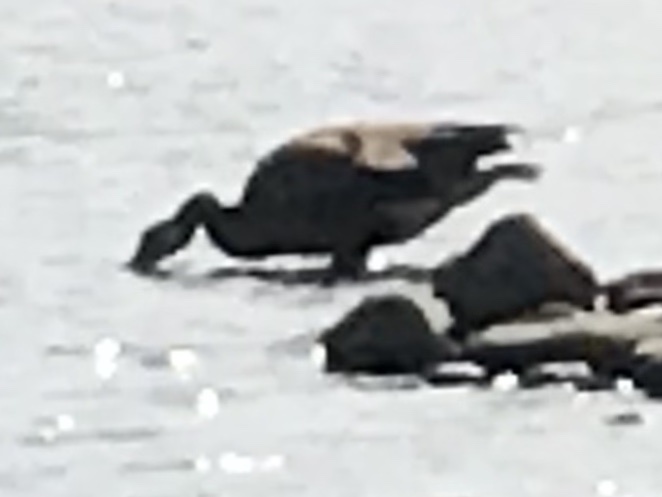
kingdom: Animalia
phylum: Chordata
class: Aves
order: Anseriformes
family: Anatidae
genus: Branta
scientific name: Branta canadensis
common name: Canada goose
